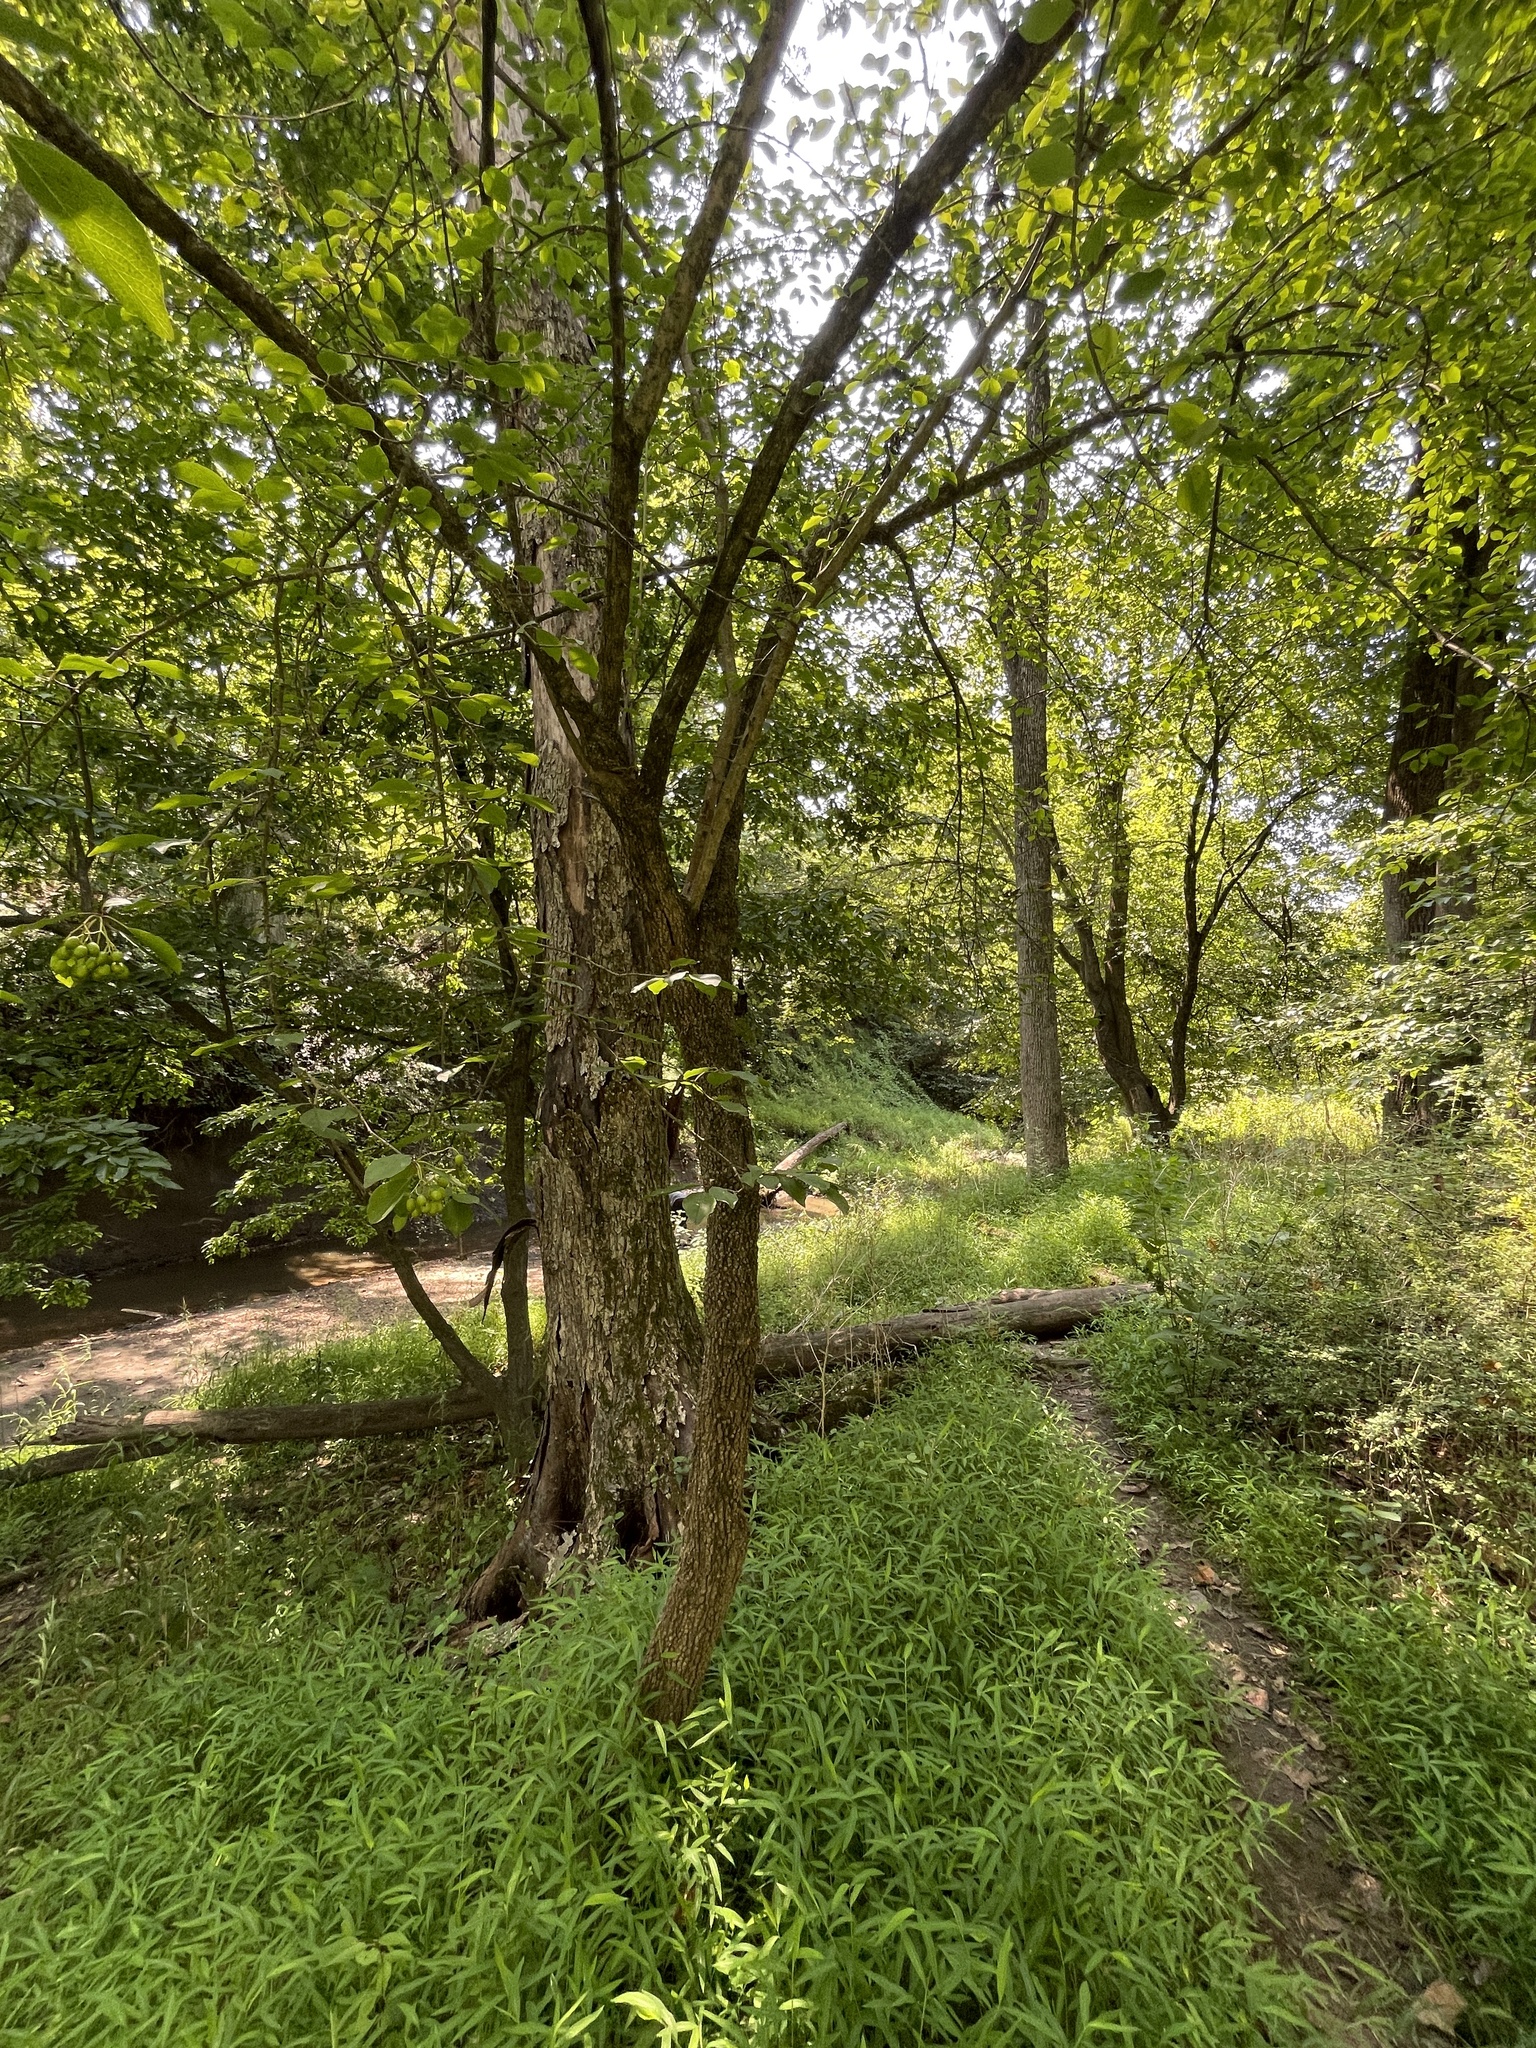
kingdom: Plantae
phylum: Tracheophyta
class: Magnoliopsida
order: Dipsacales
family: Viburnaceae
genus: Viburnum
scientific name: Viburnum prunifolium
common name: Black haw
